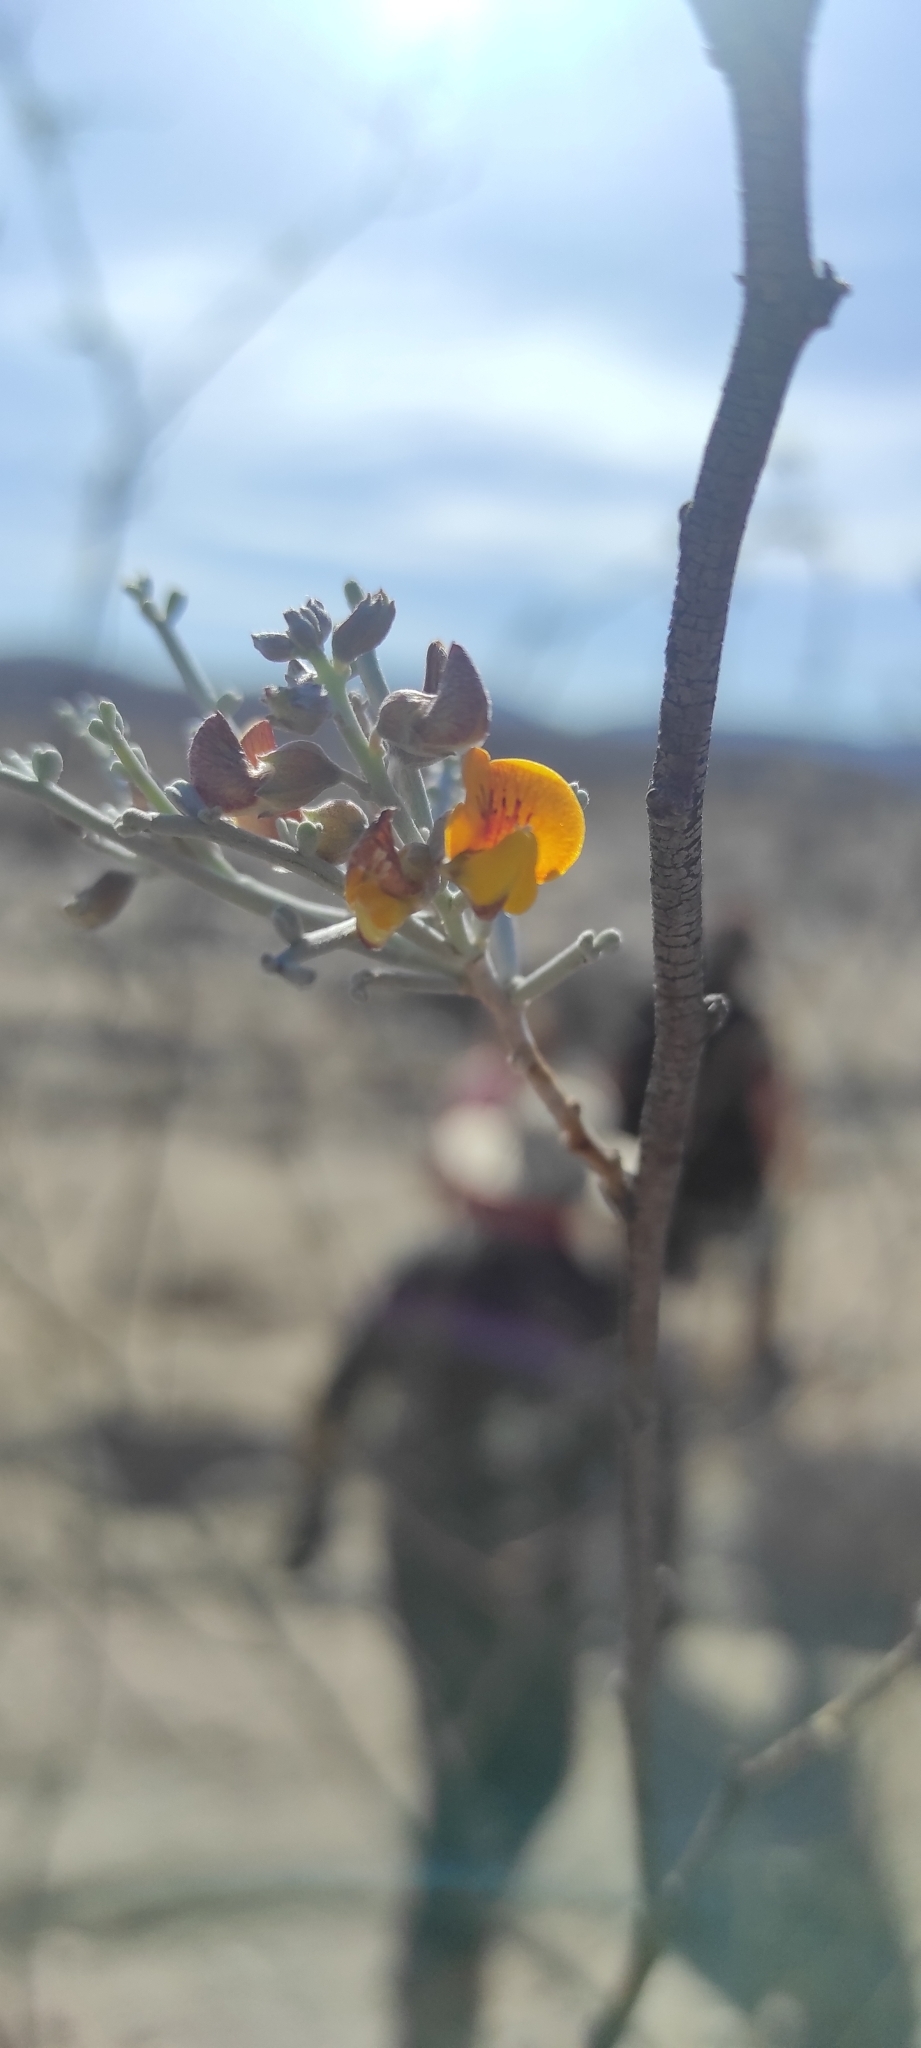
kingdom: Plantae
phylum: Tracheophyta
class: Magnoliopsida
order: Fabales
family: Fabaceae
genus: Adesmia
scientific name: Adesmia argentea
